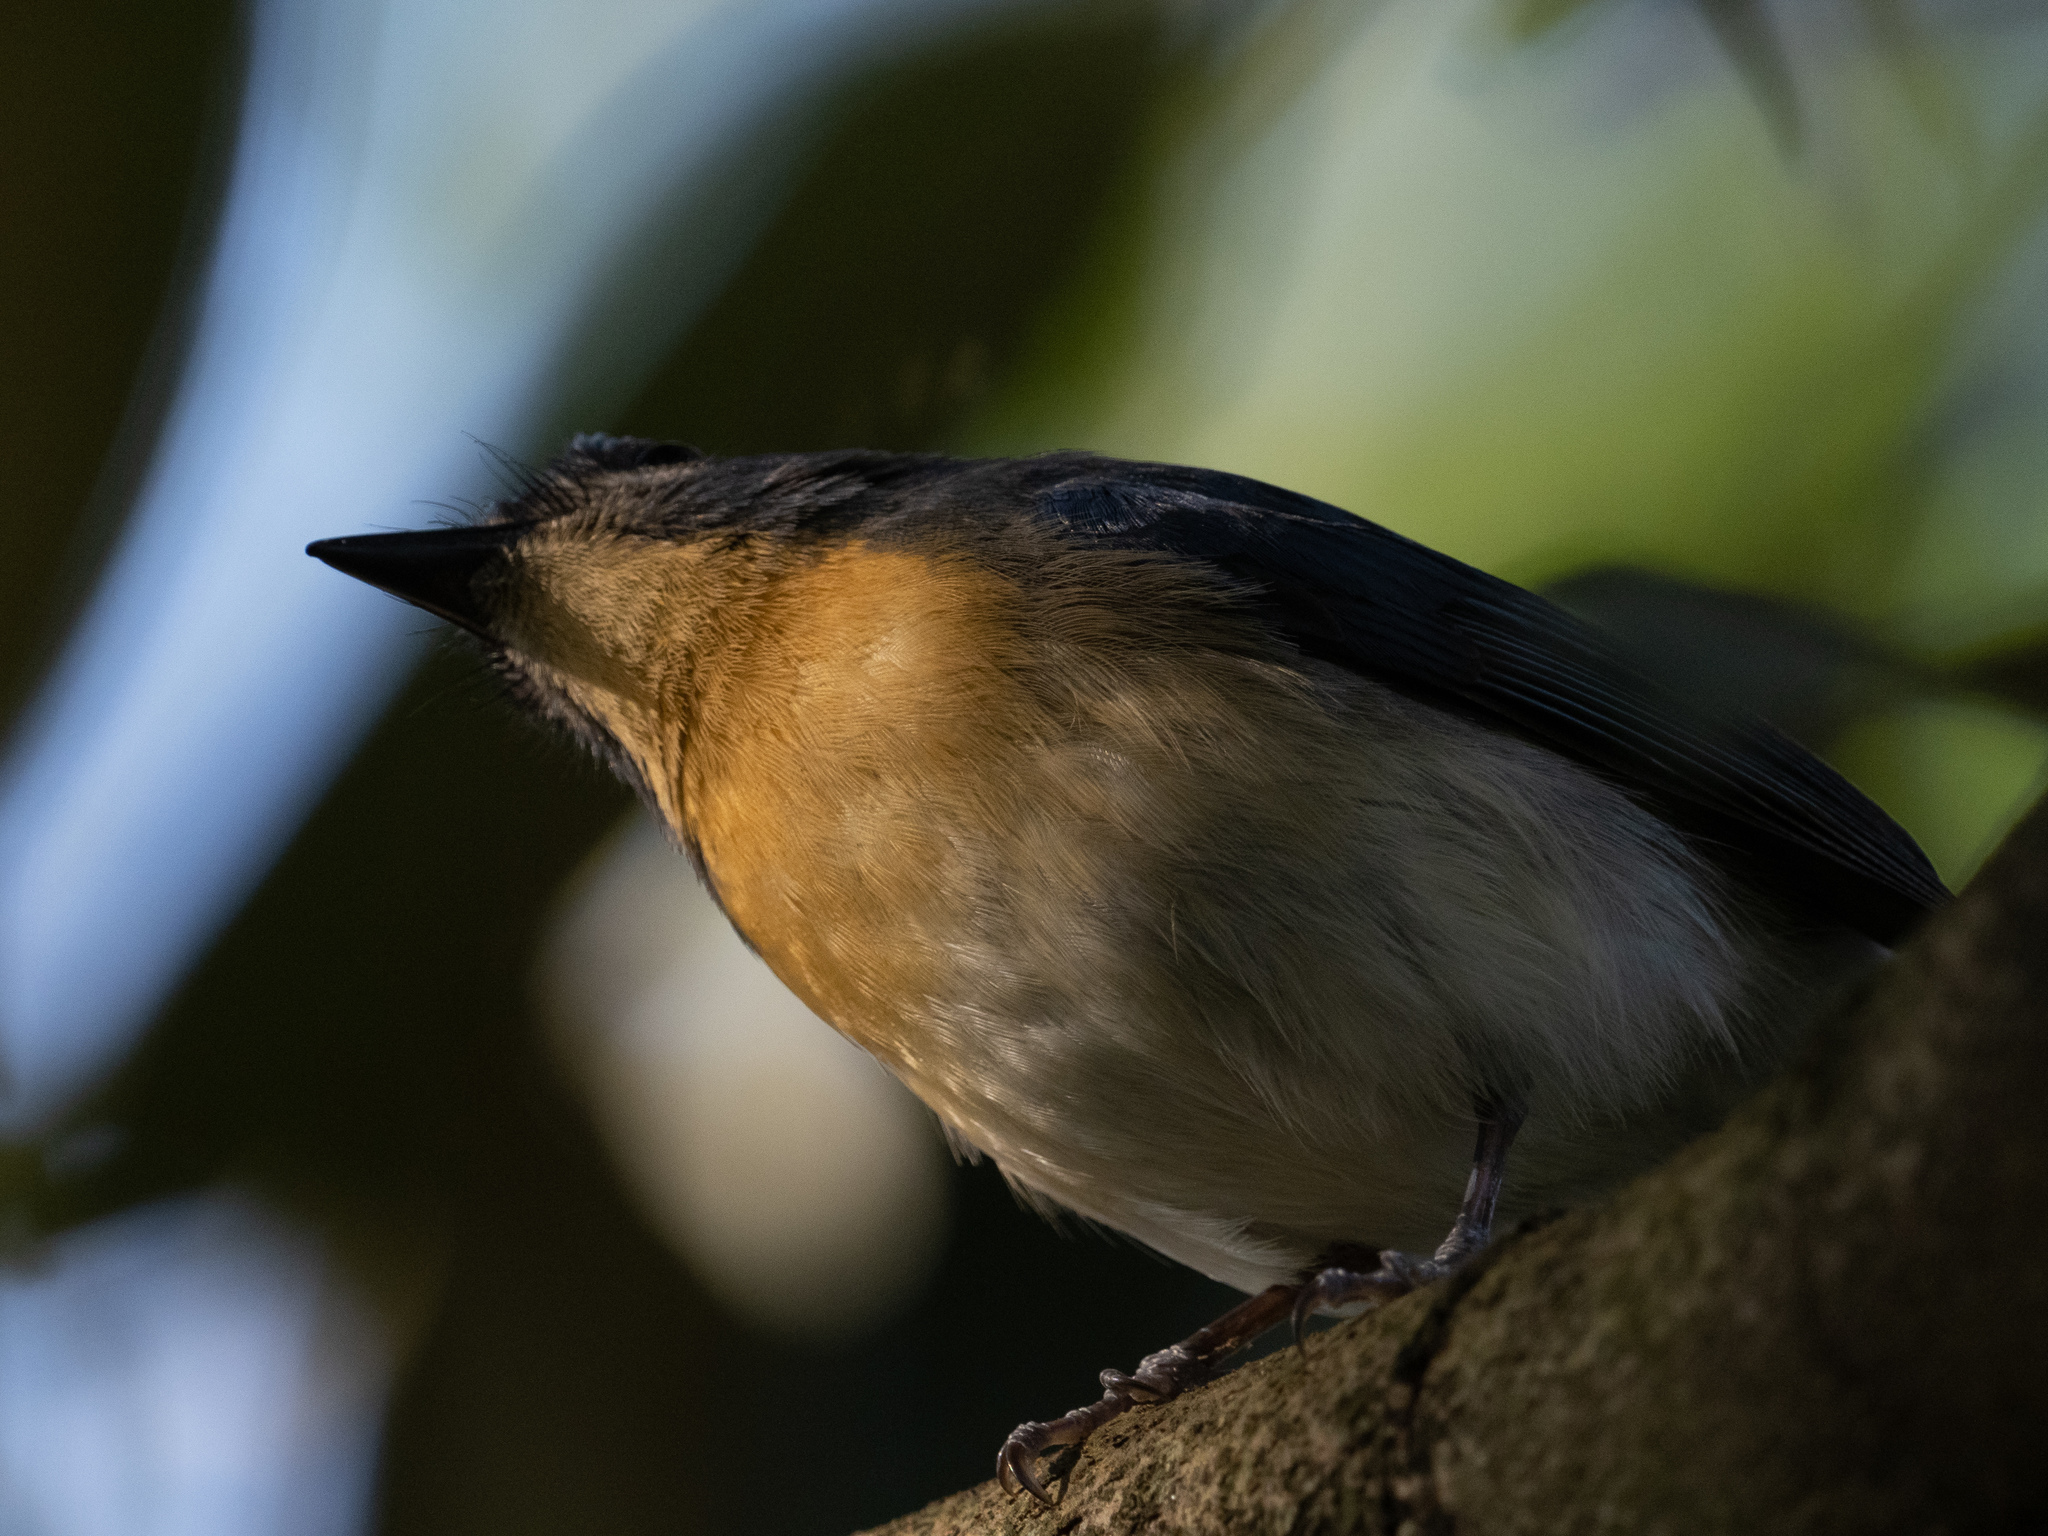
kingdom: Animalia
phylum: Chordata
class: Aves
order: Passeriformes
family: Muscicapidae
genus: Cyornis
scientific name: Cyornis tickelliae
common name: Tickell's blue flycatcher
